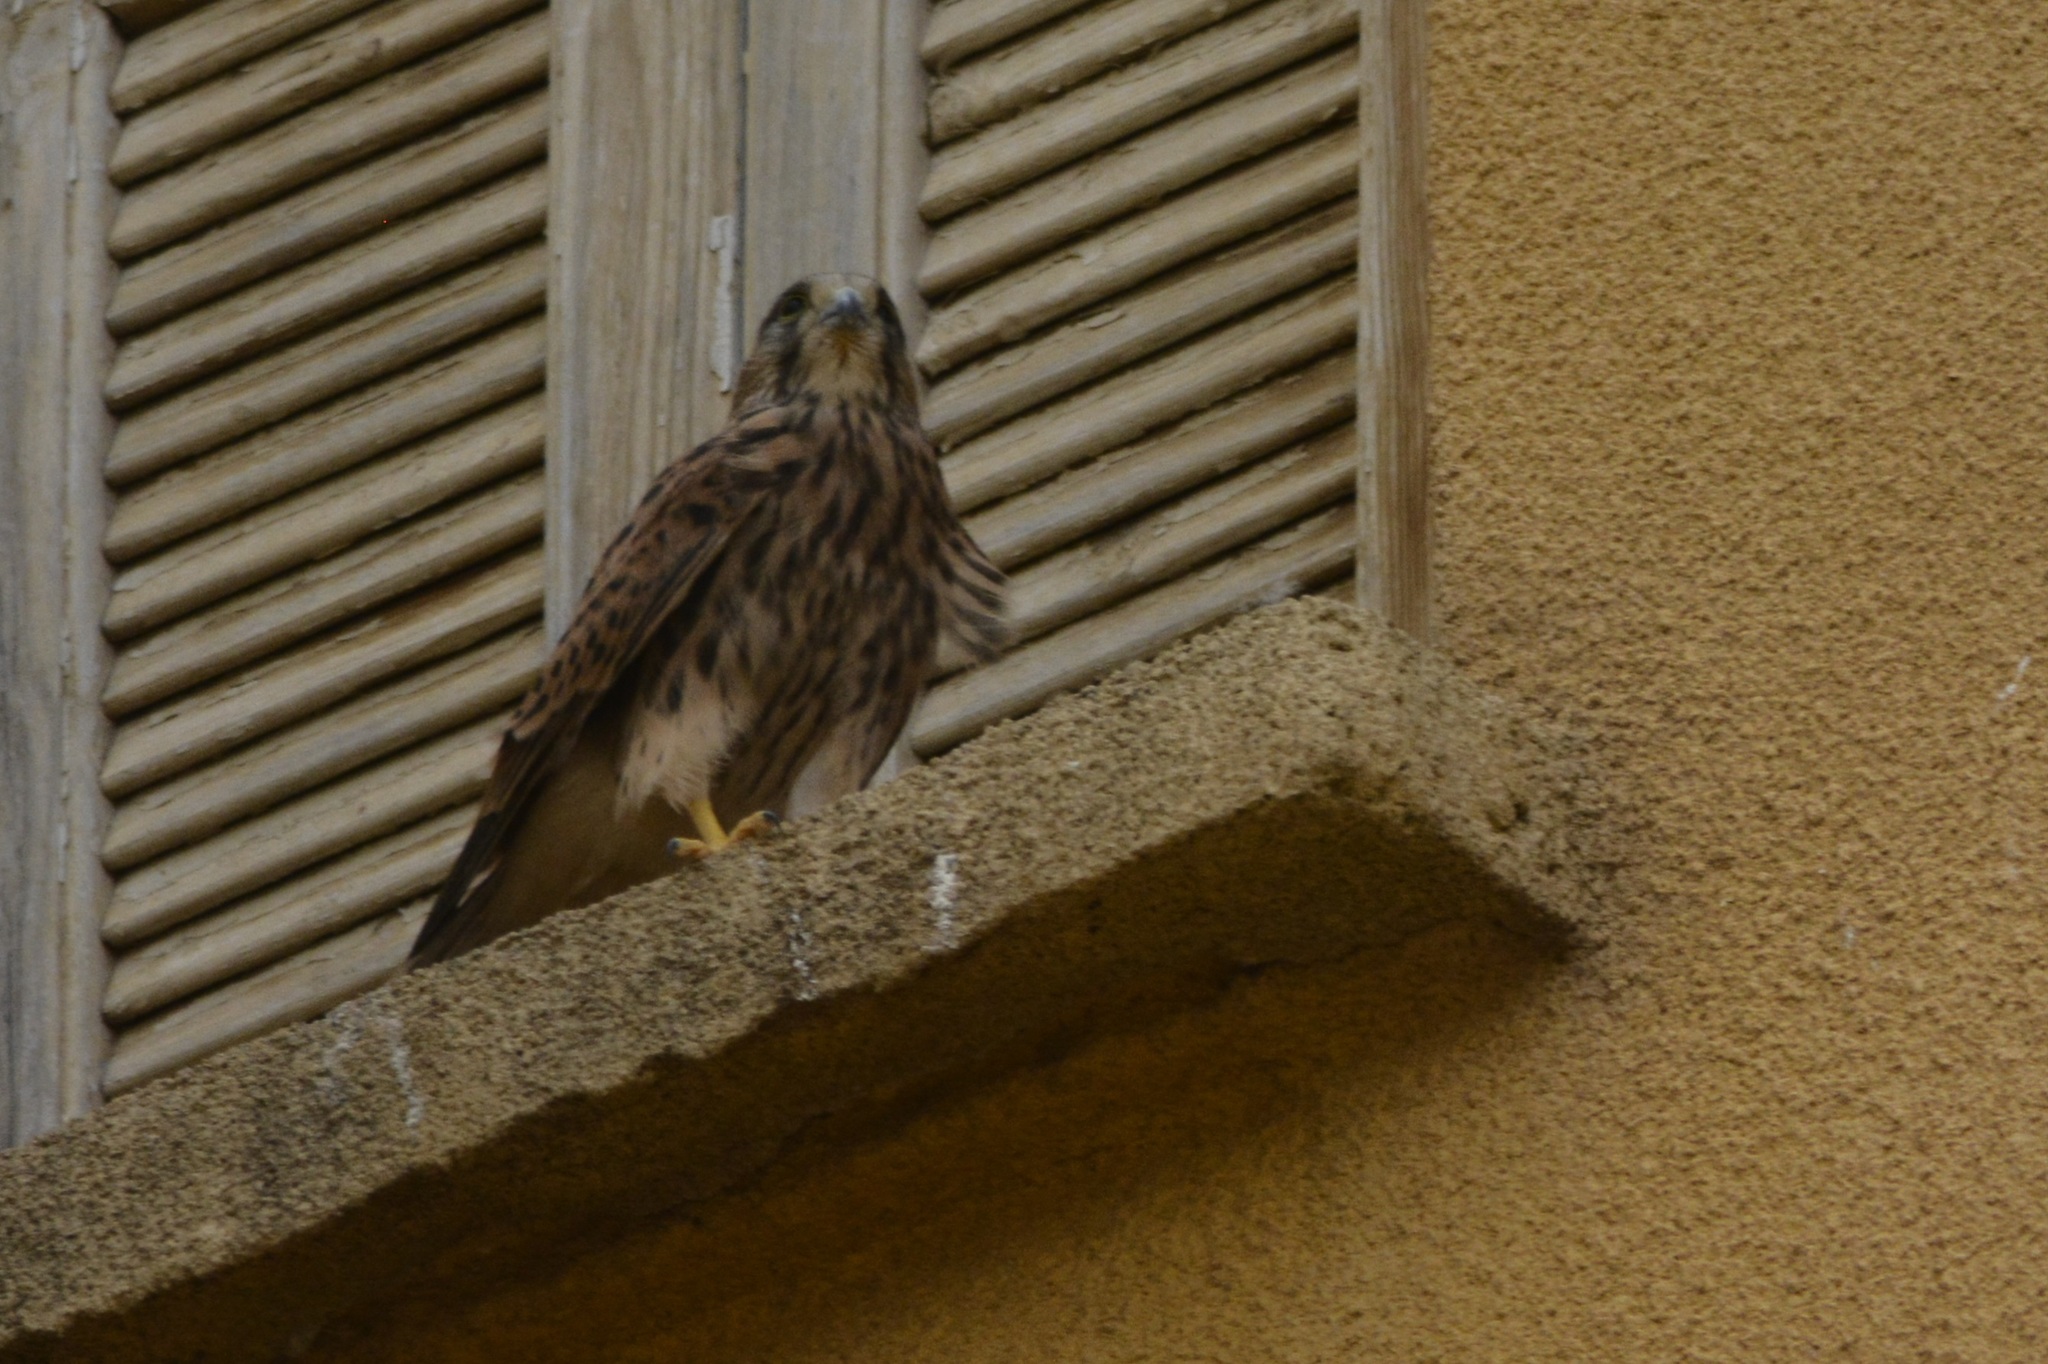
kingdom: Animalia
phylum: Chordata
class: Aves
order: Falconiformes
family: Falconidae
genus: Falco
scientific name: Falco tinnunculus
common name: Common kestrel
